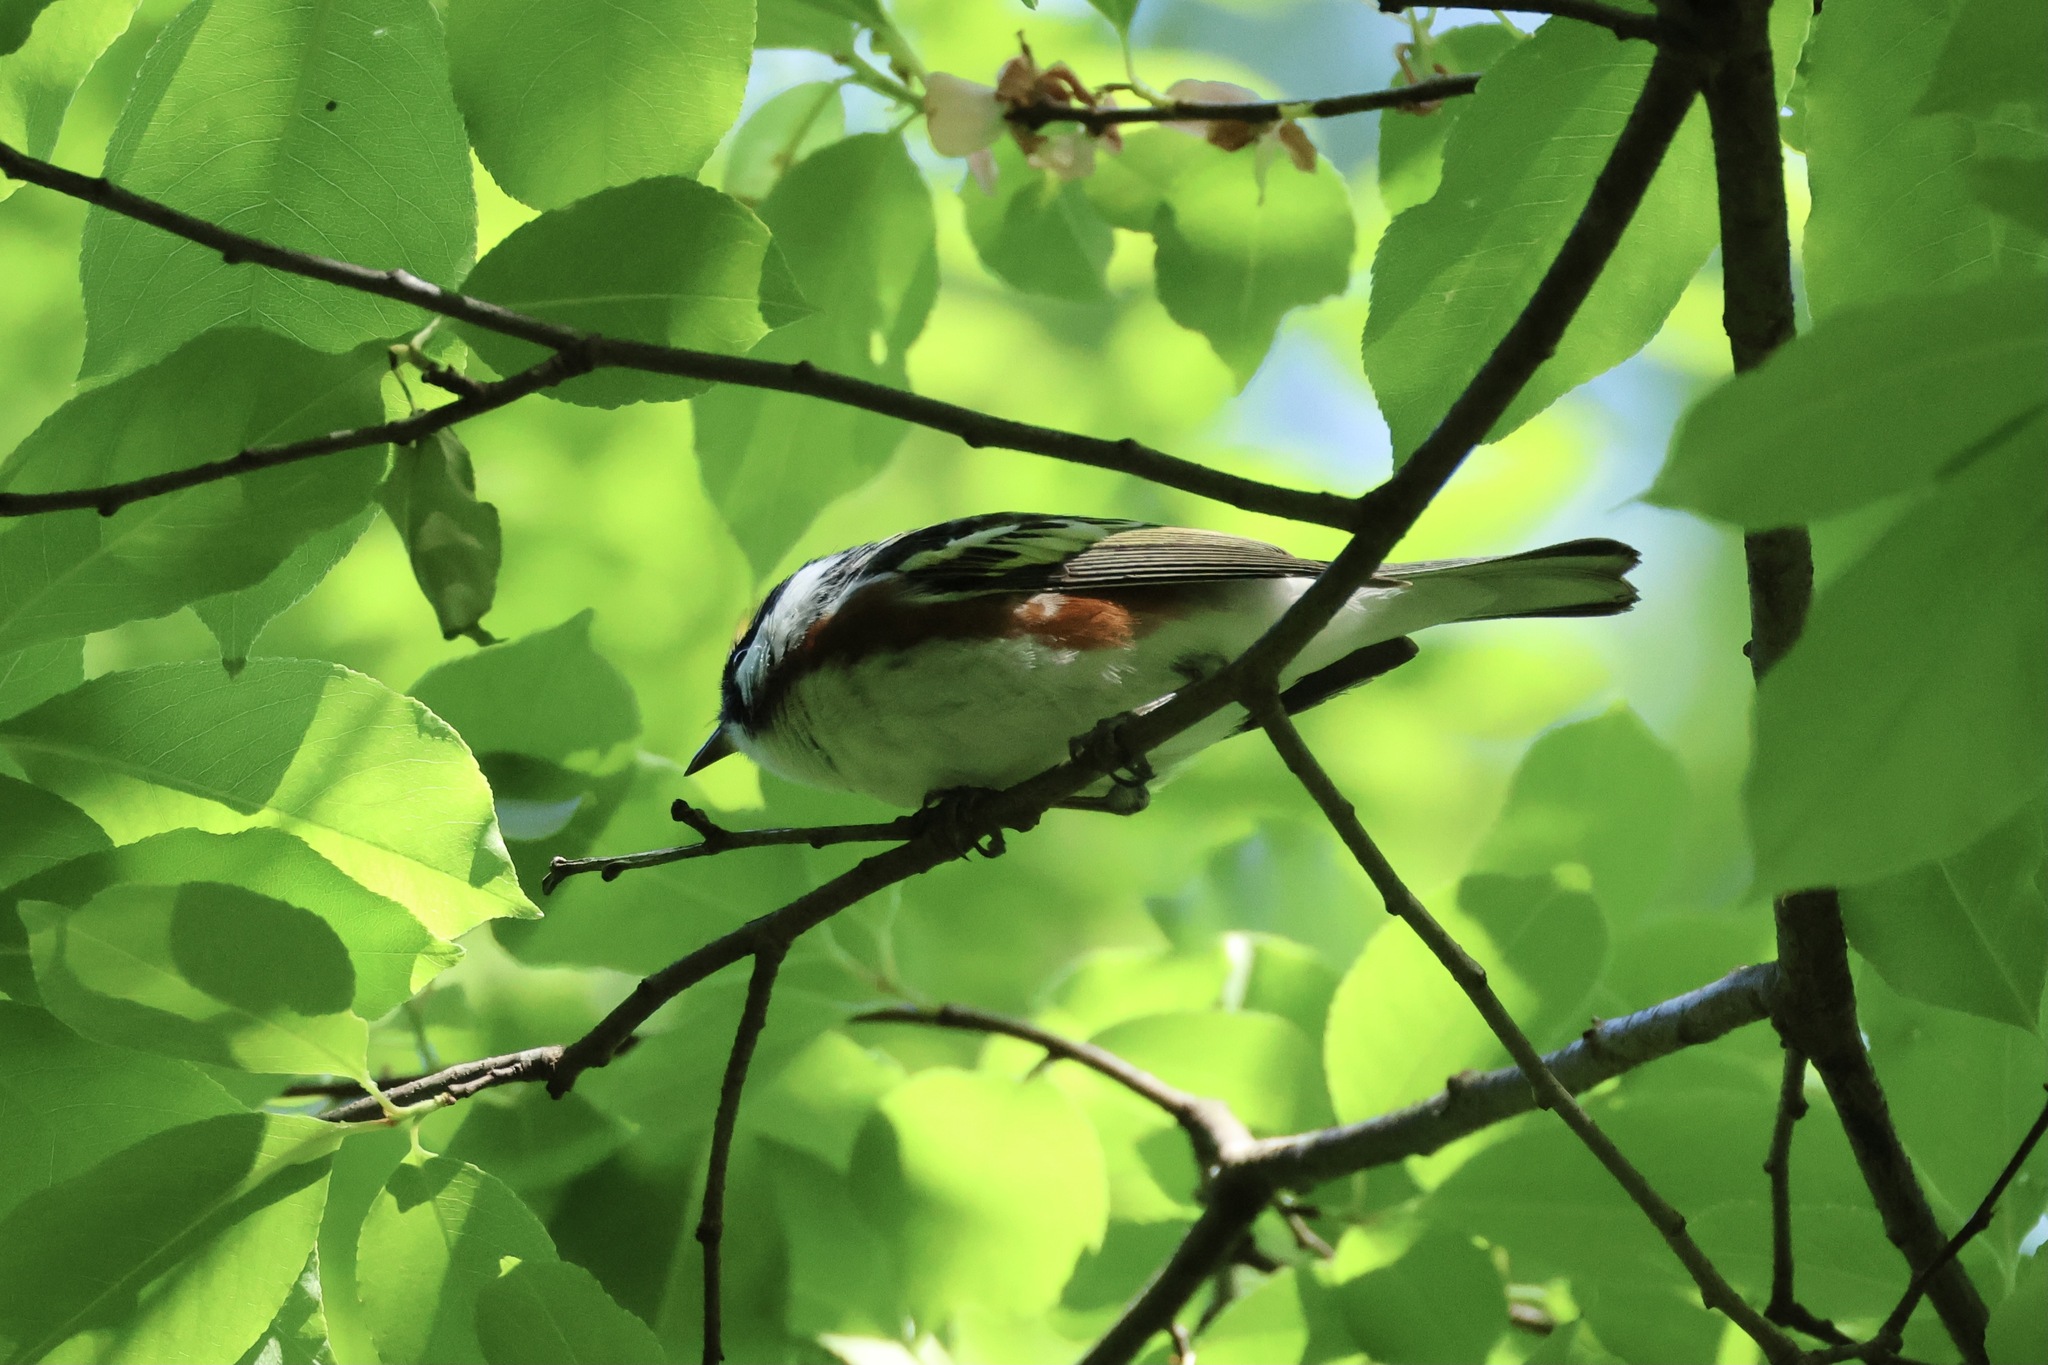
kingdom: Animalia
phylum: Chordata
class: Aves
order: Passeriformes
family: Parulidae
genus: Setophaga
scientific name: Setophaga pensylvanica
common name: Chestnut-sided warbler
